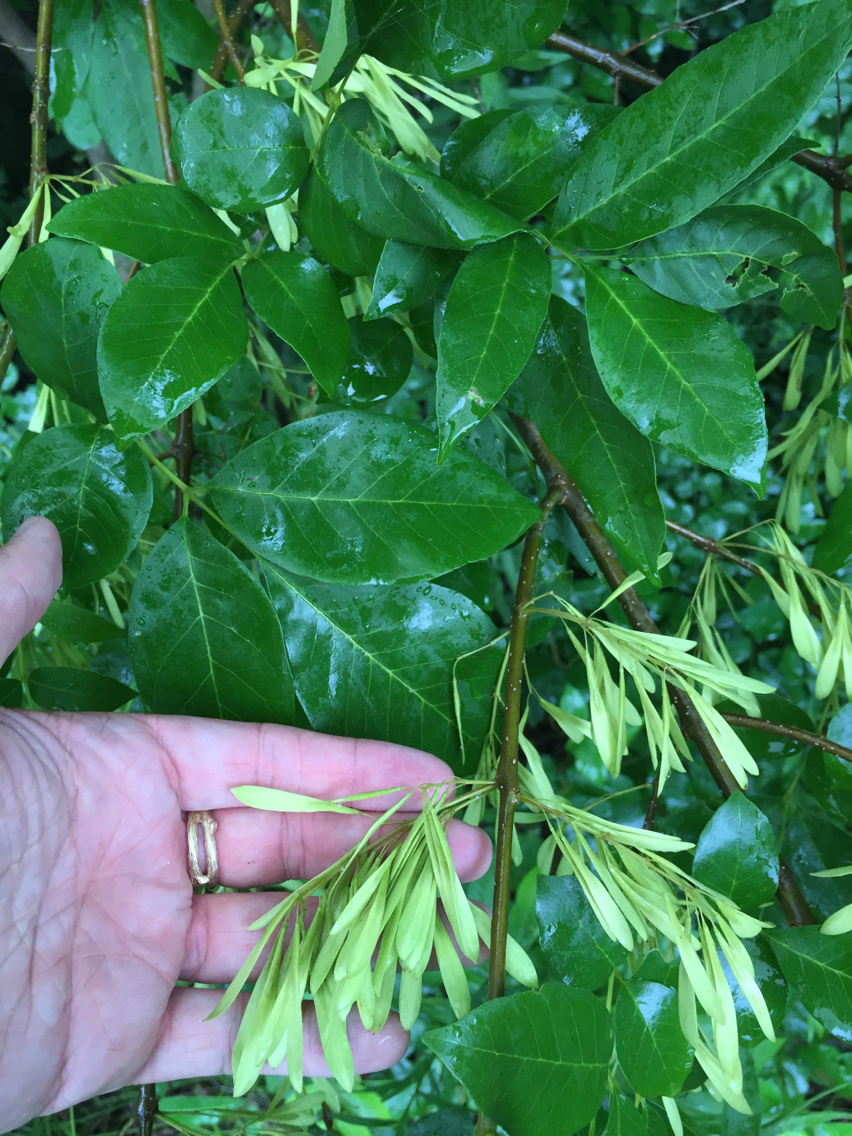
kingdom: Plantae
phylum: Tracheophyta
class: Magnoliopsida
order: Lamiales
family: Oleaceae
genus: Fraxinus
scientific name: Fraxinus pennsylvanica
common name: Green ash
